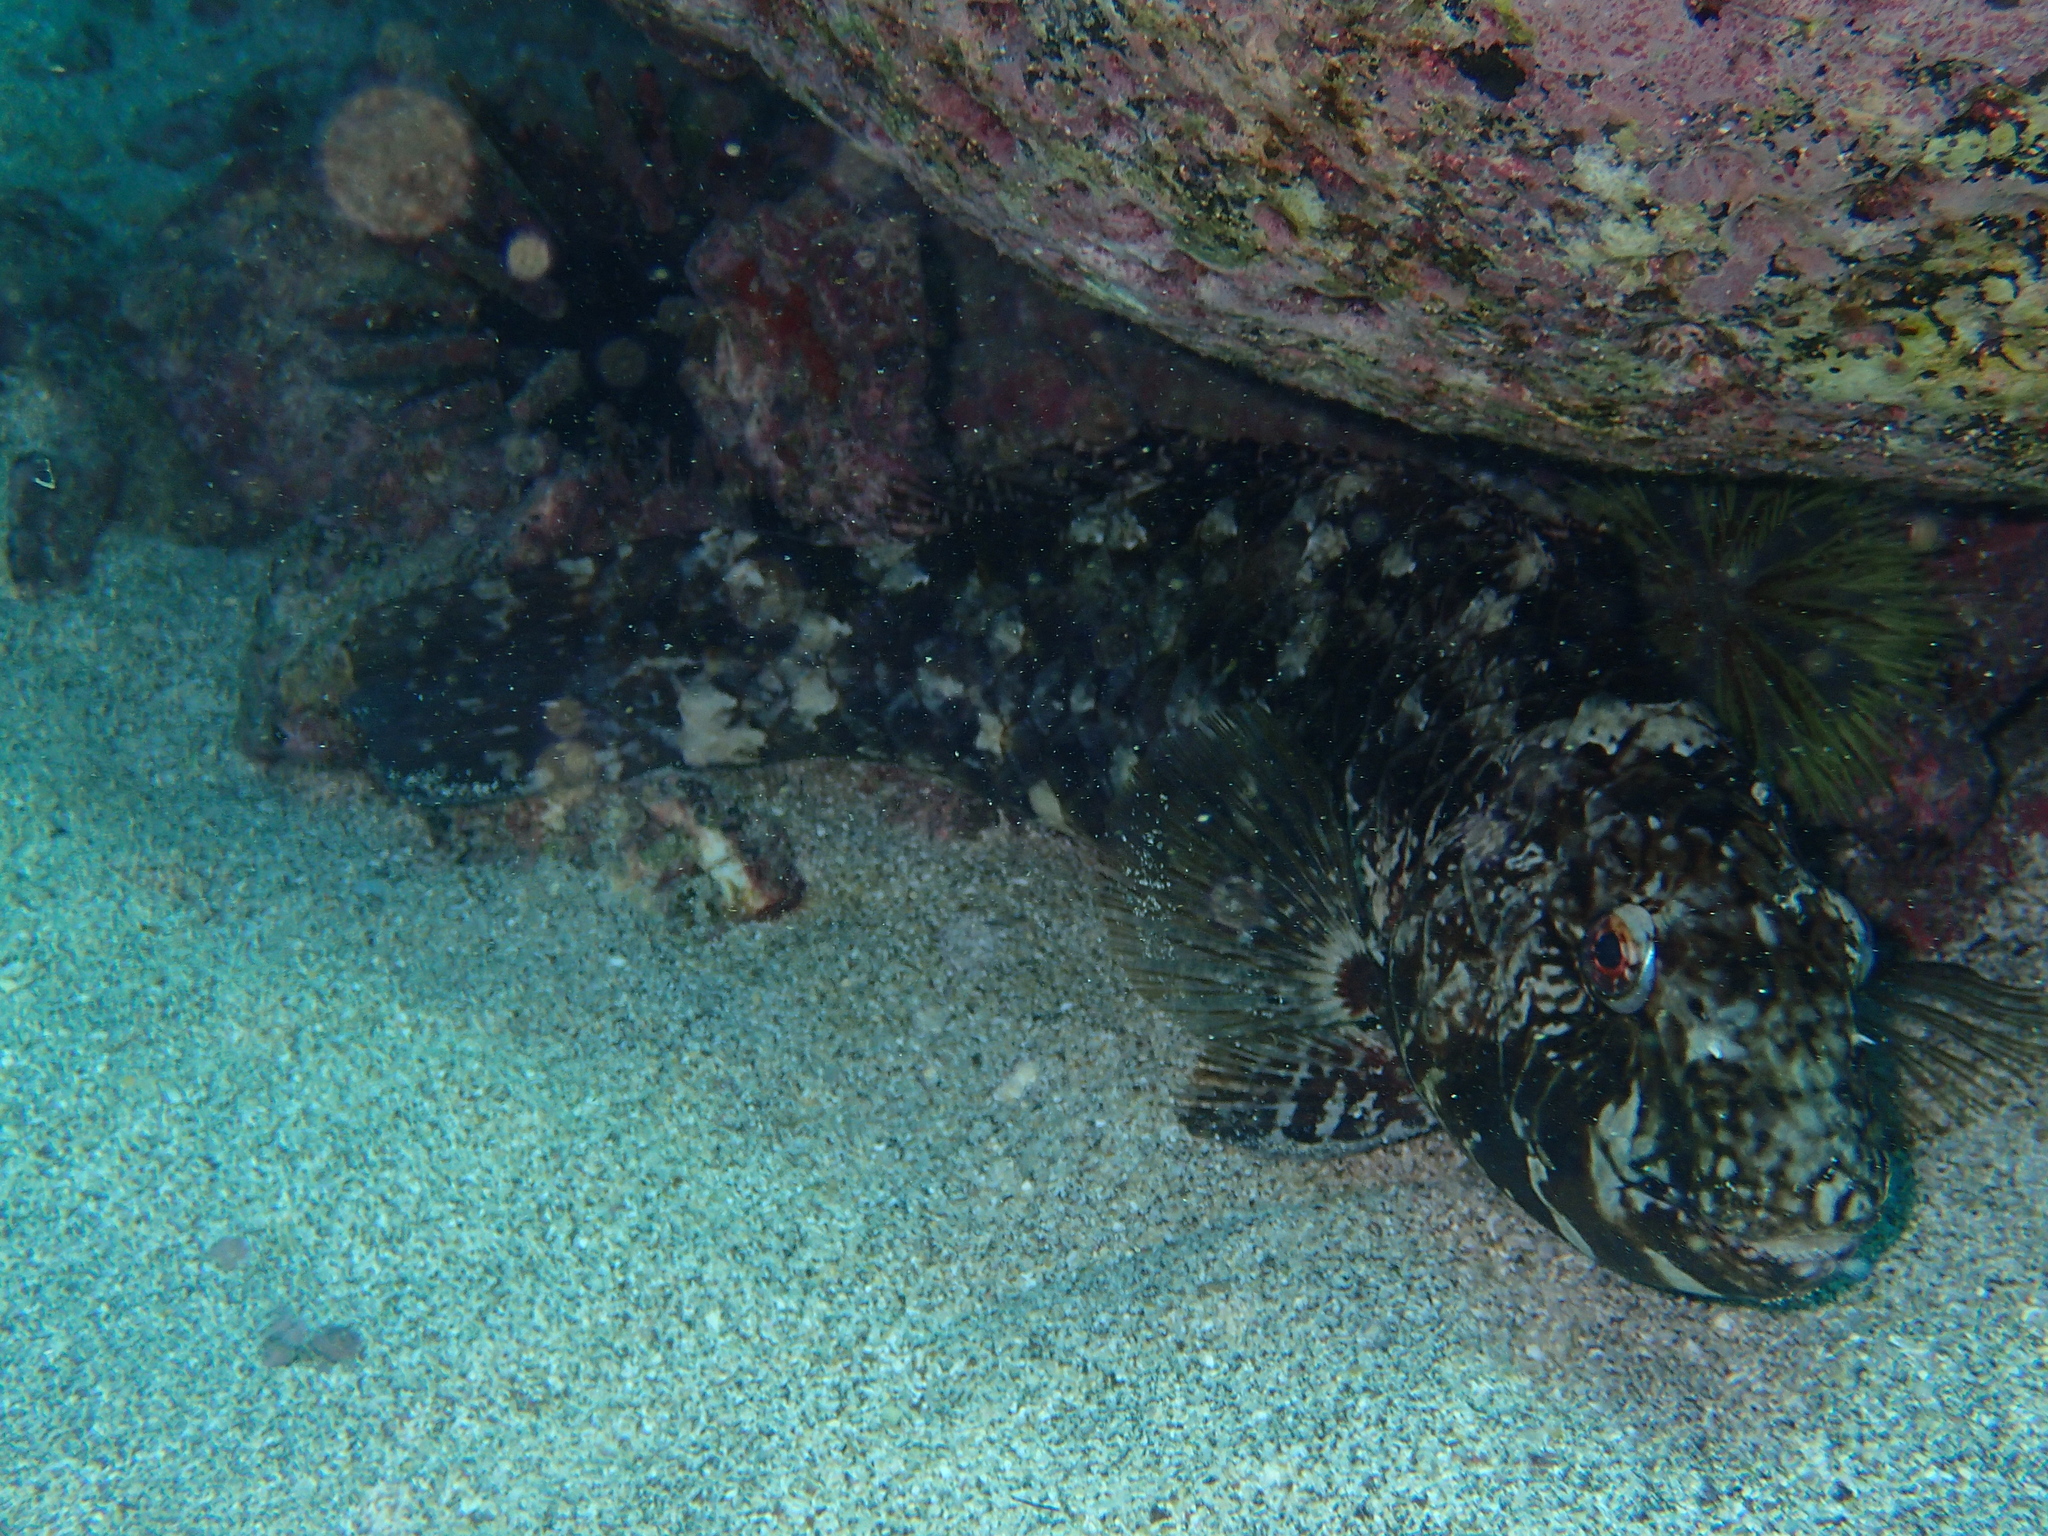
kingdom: Animalia
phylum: Chordata
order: Perciformes
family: Scaridae
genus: Nicholsina
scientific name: Nicholsina denticulata
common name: Loosetooth parrotfish
